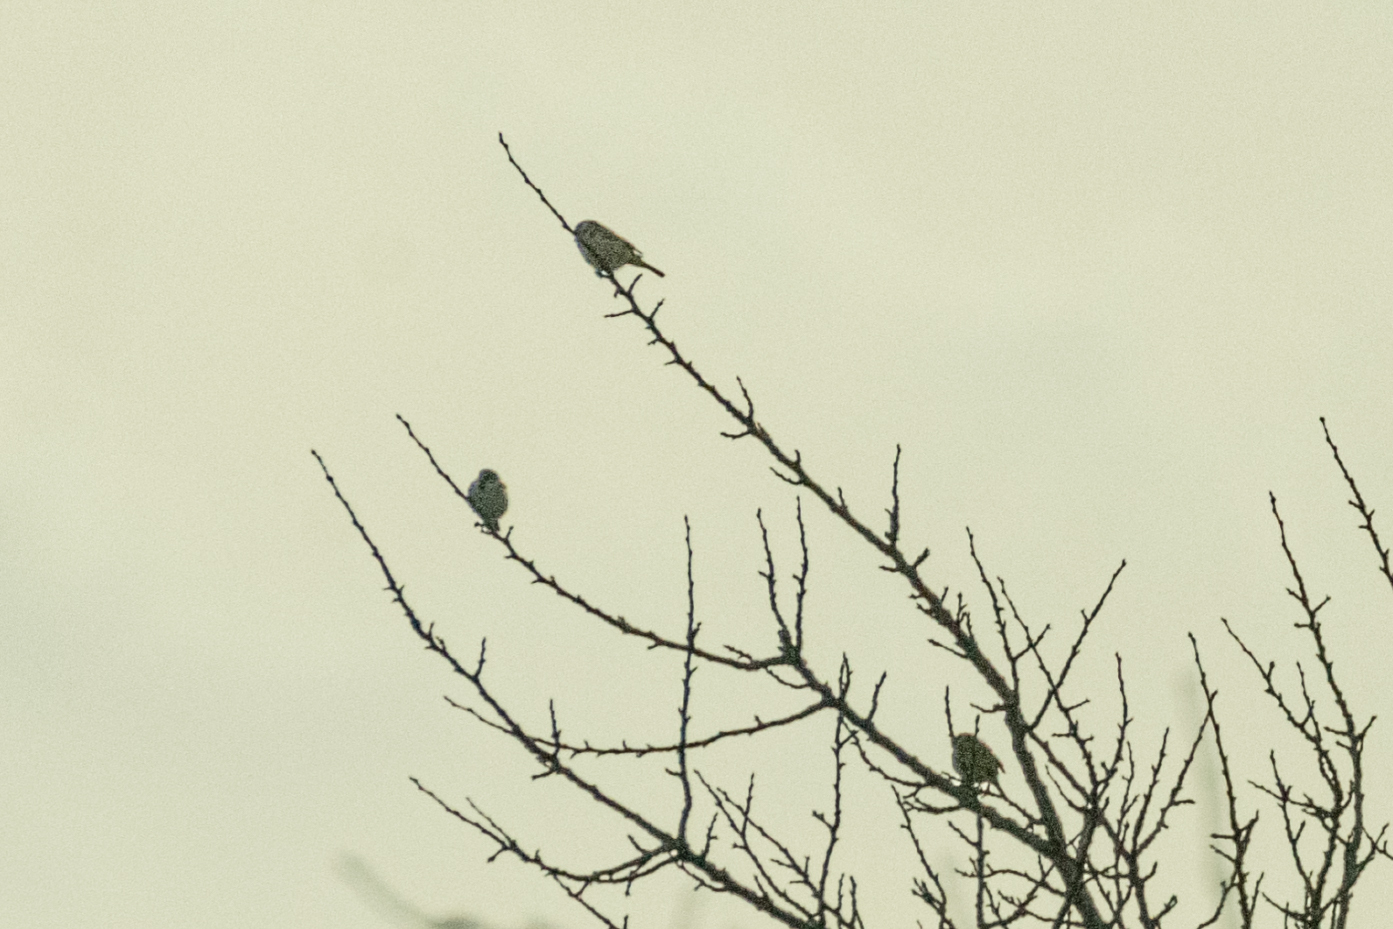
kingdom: Animalia
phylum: Chordata
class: Aves
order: Passeriformes
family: Passeridae
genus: Passer
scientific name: Passer montanus
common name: Eurasian tree sparrow
